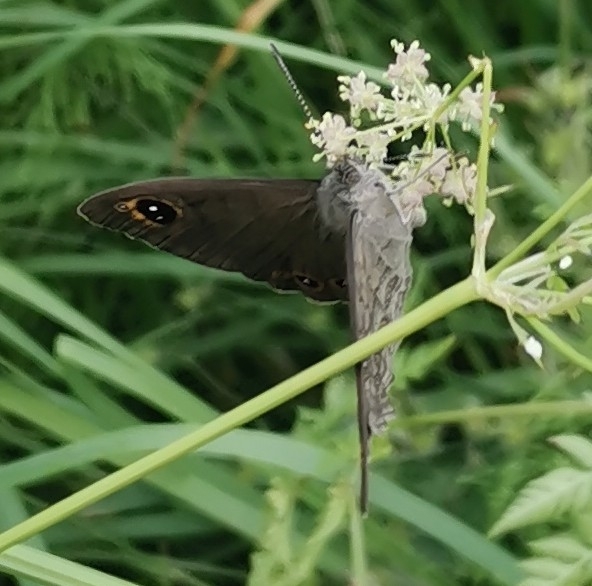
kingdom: Animalia
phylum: Arthropoda
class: Insecta
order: Lepidoptera
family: Nymphalidae
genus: Pararge
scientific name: Pararge Lasiommata maera
